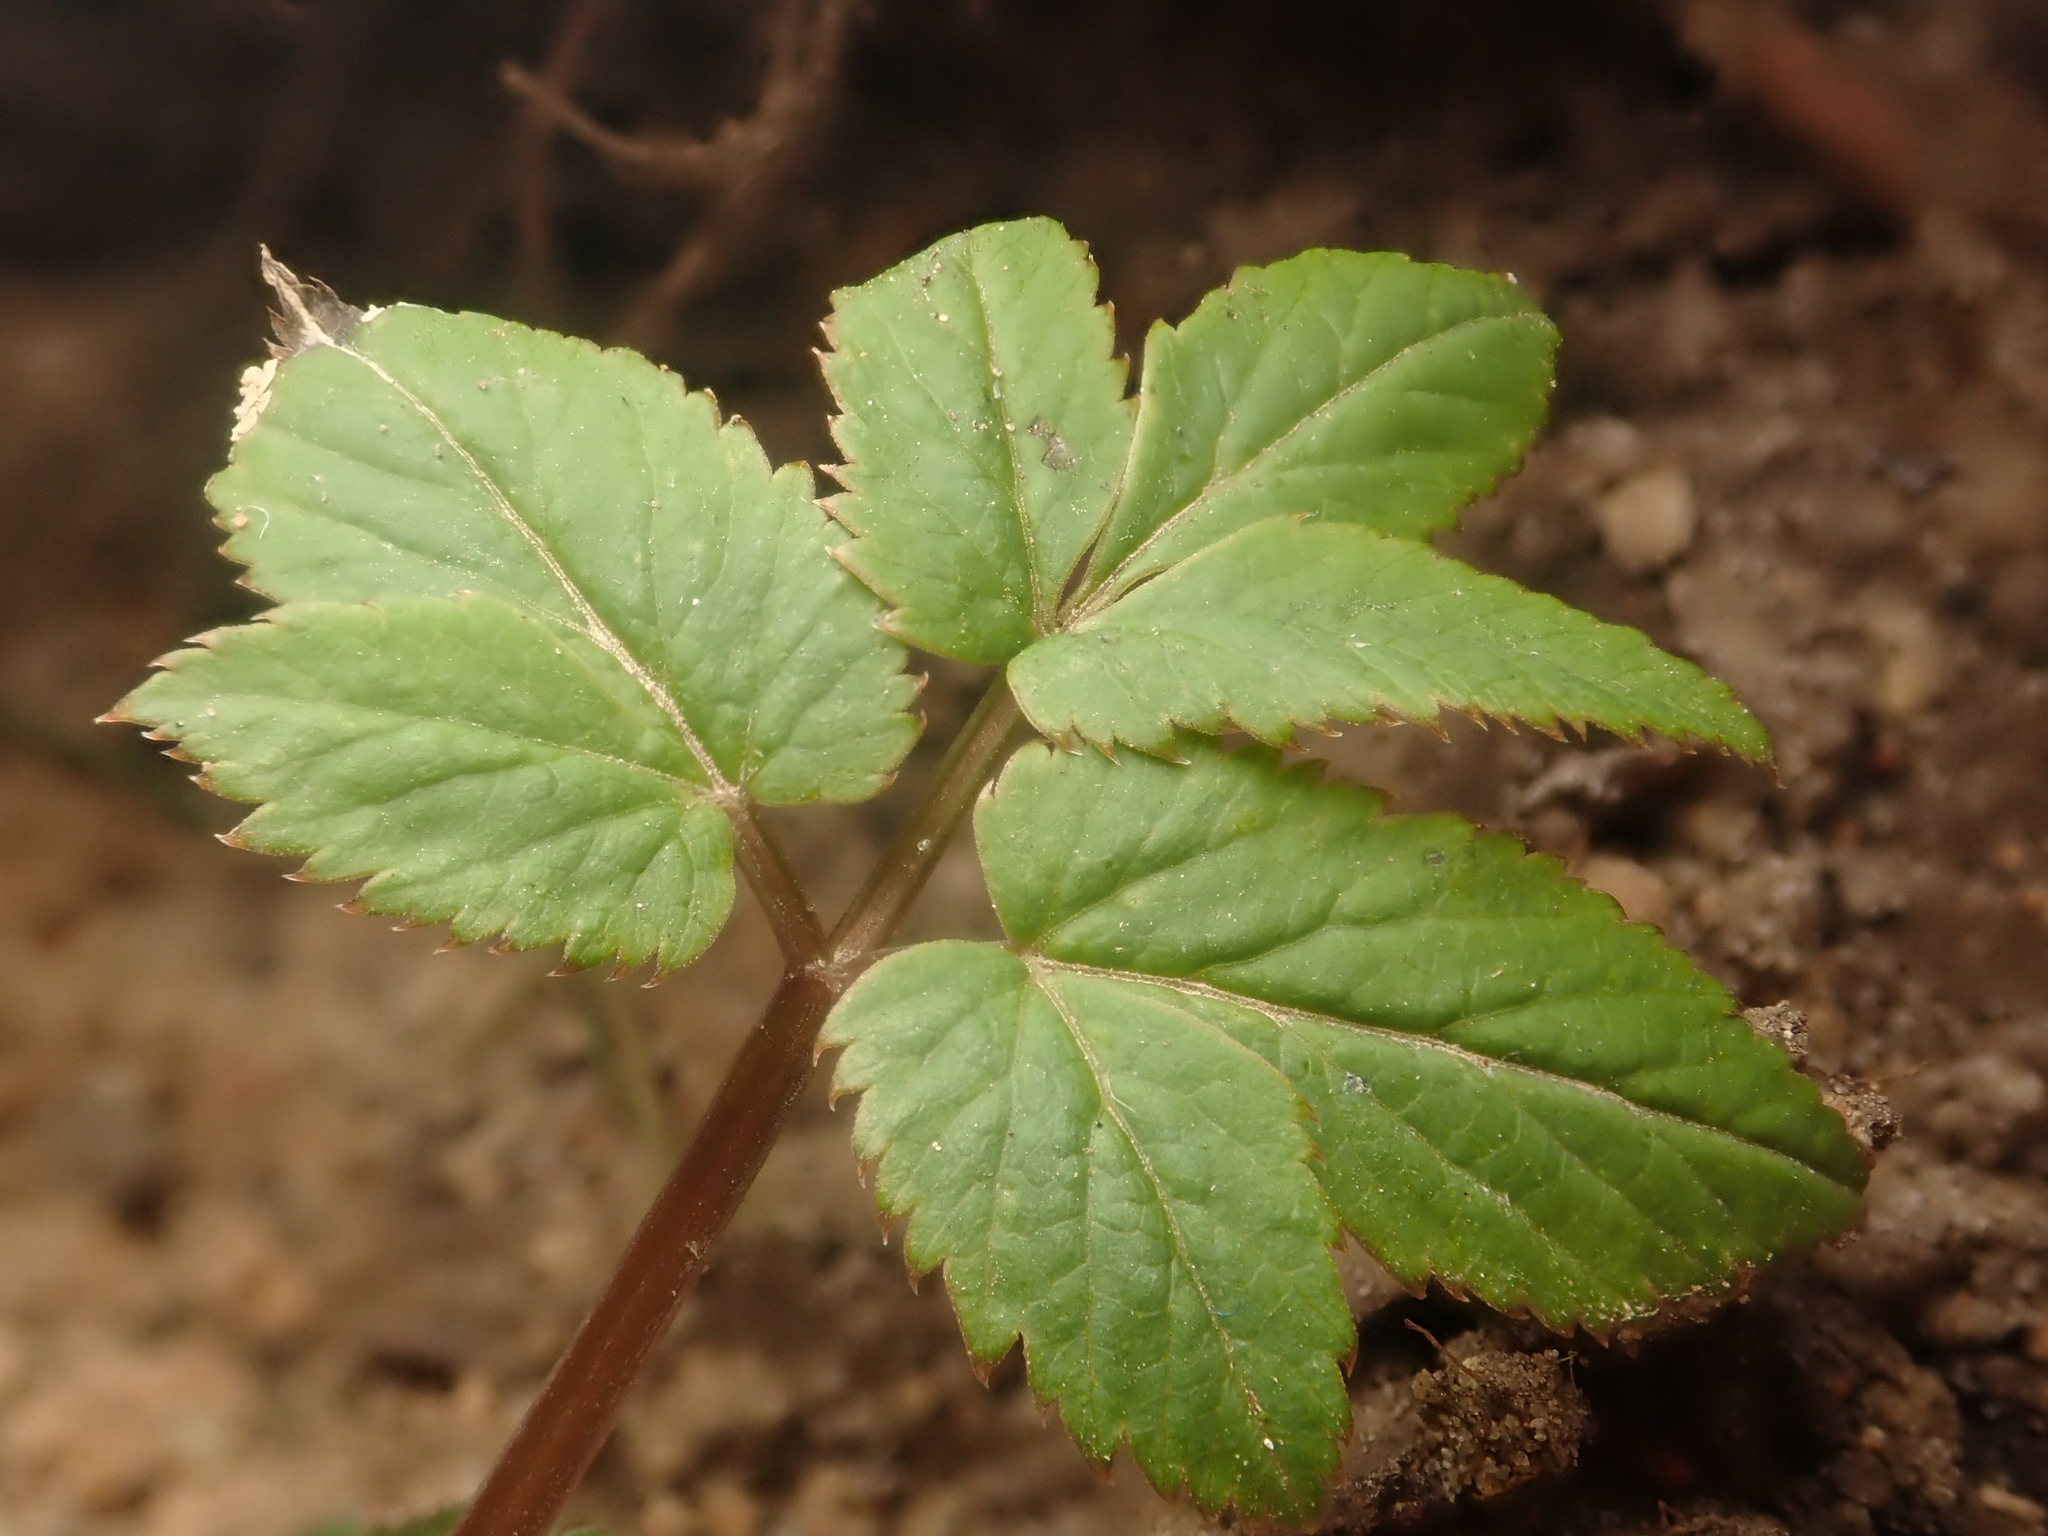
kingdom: Plantae
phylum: Tracheophyta
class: Magnoliopsida
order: Apiales
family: Apiaceae
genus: Aegopodium
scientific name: Aegopodium podagraria
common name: Ground-elder
